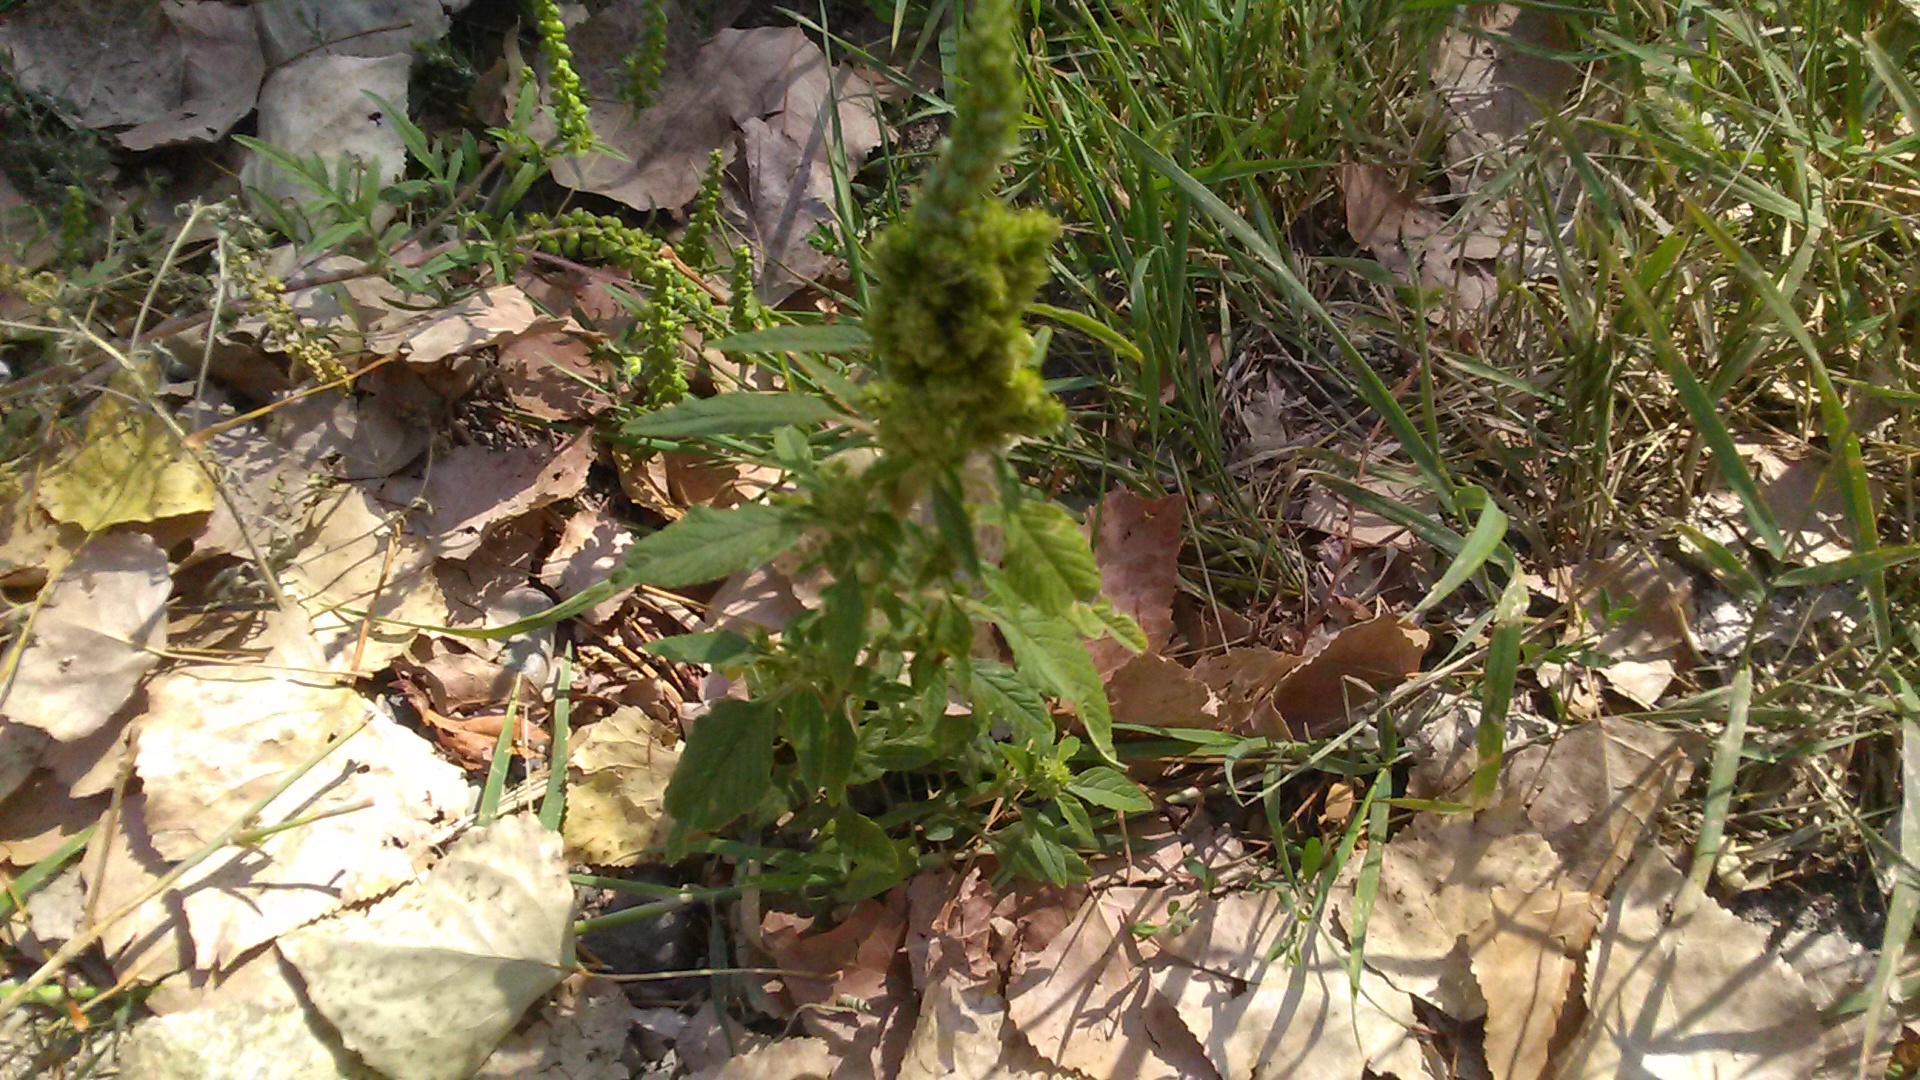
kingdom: Plantae
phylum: Tracheophyta
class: Magnoliopsida
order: Caryophyllales
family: Amaranthaceae
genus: Amaranthus
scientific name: Amaranthus retroflexus
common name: Redroot amaranth
